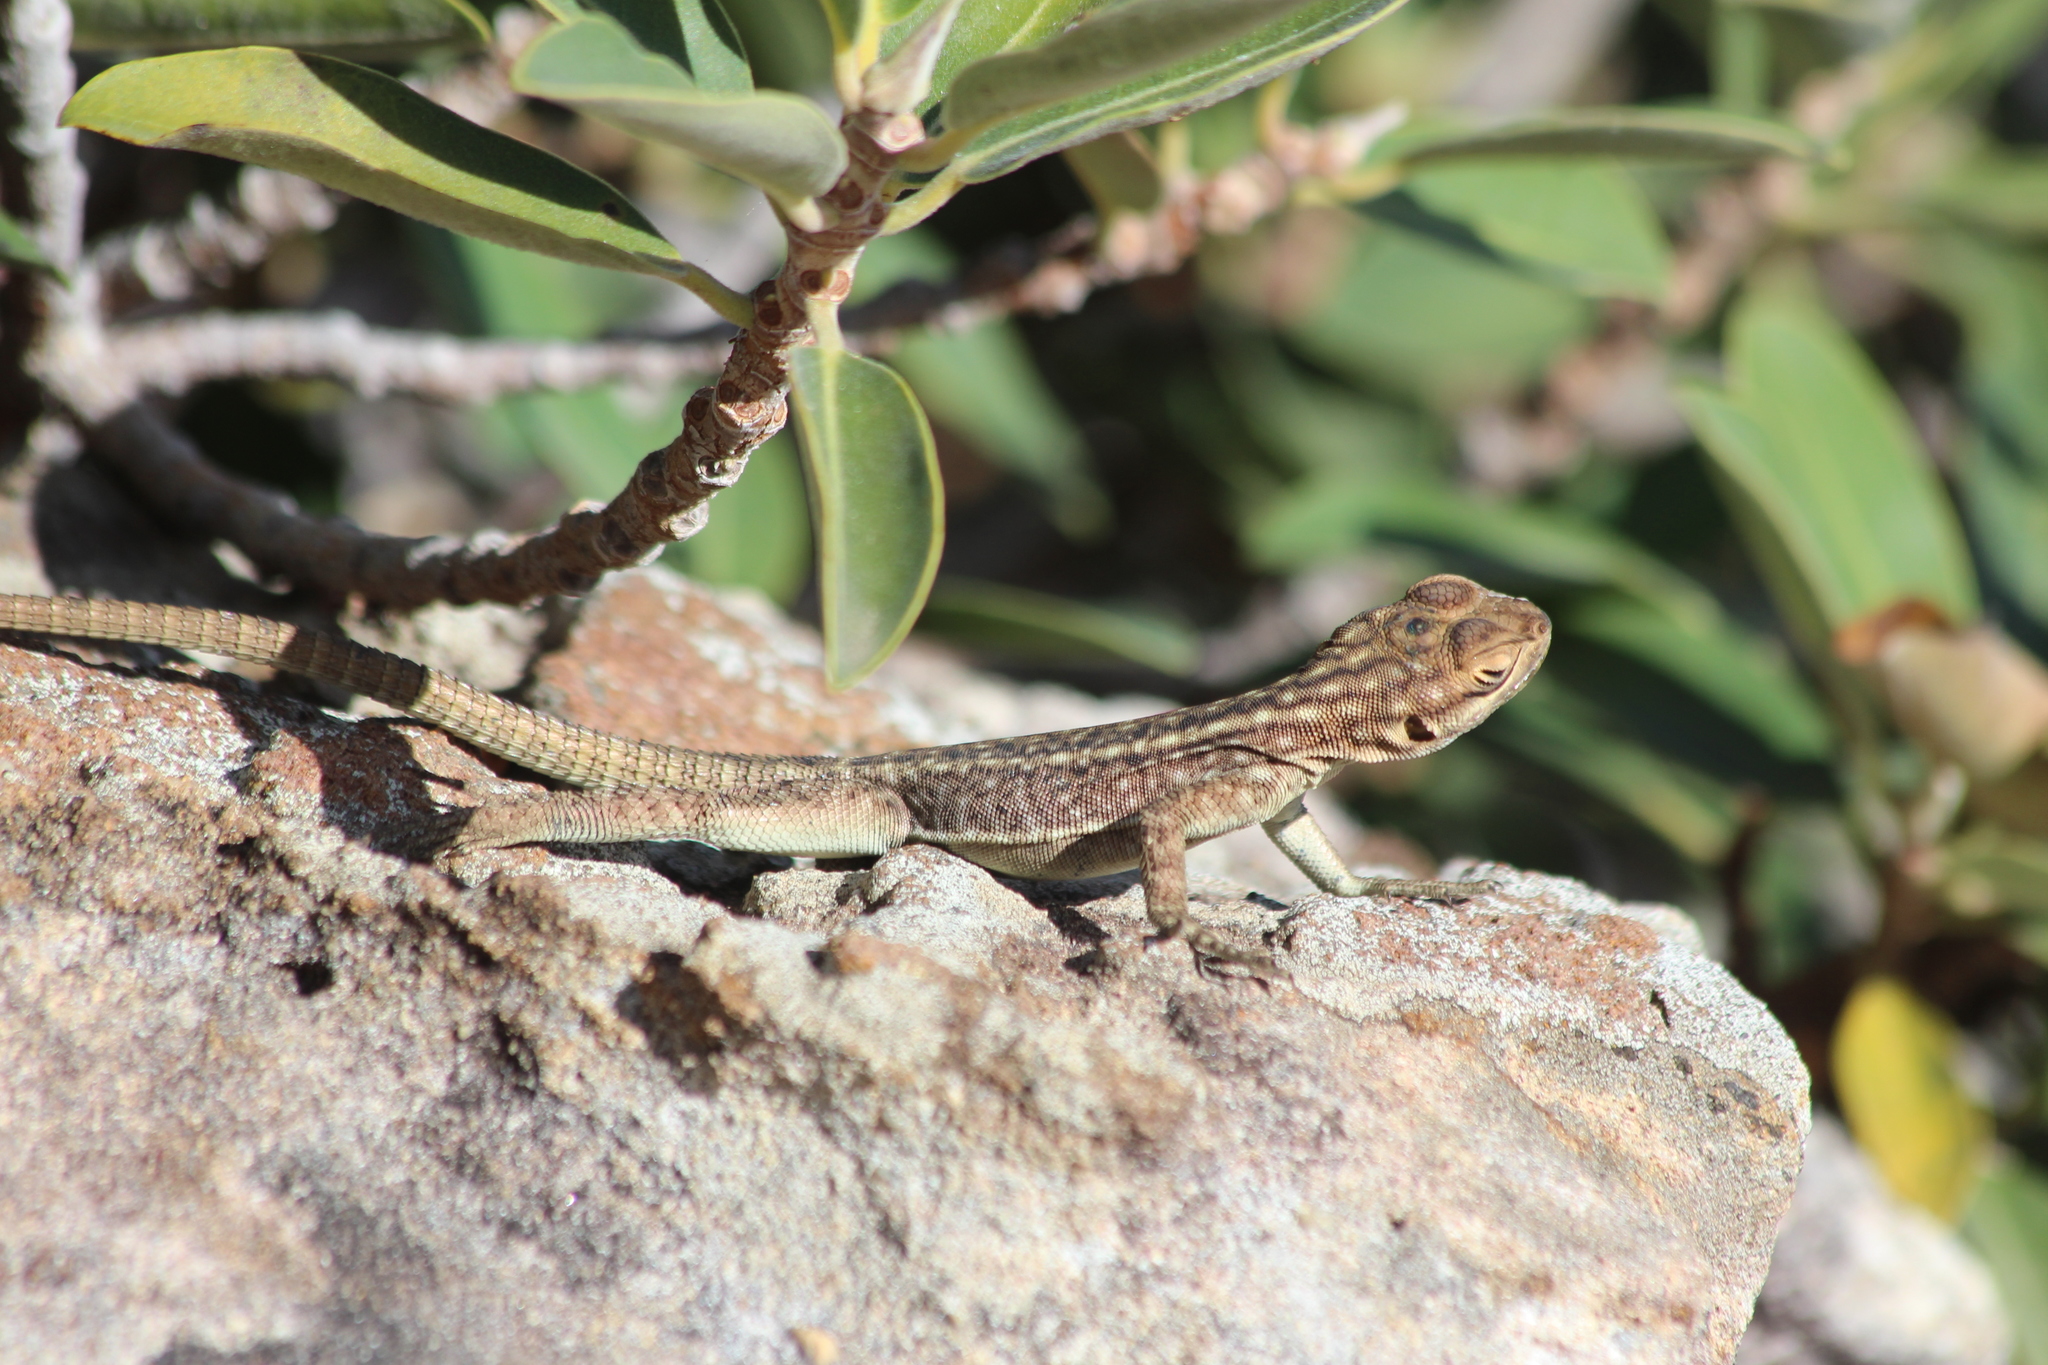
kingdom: Animalia
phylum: Chordata
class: Squamata
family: Opluridae
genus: Oplurus
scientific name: Oplurus quadrimaculatus
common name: Duméril's madagascar swift
